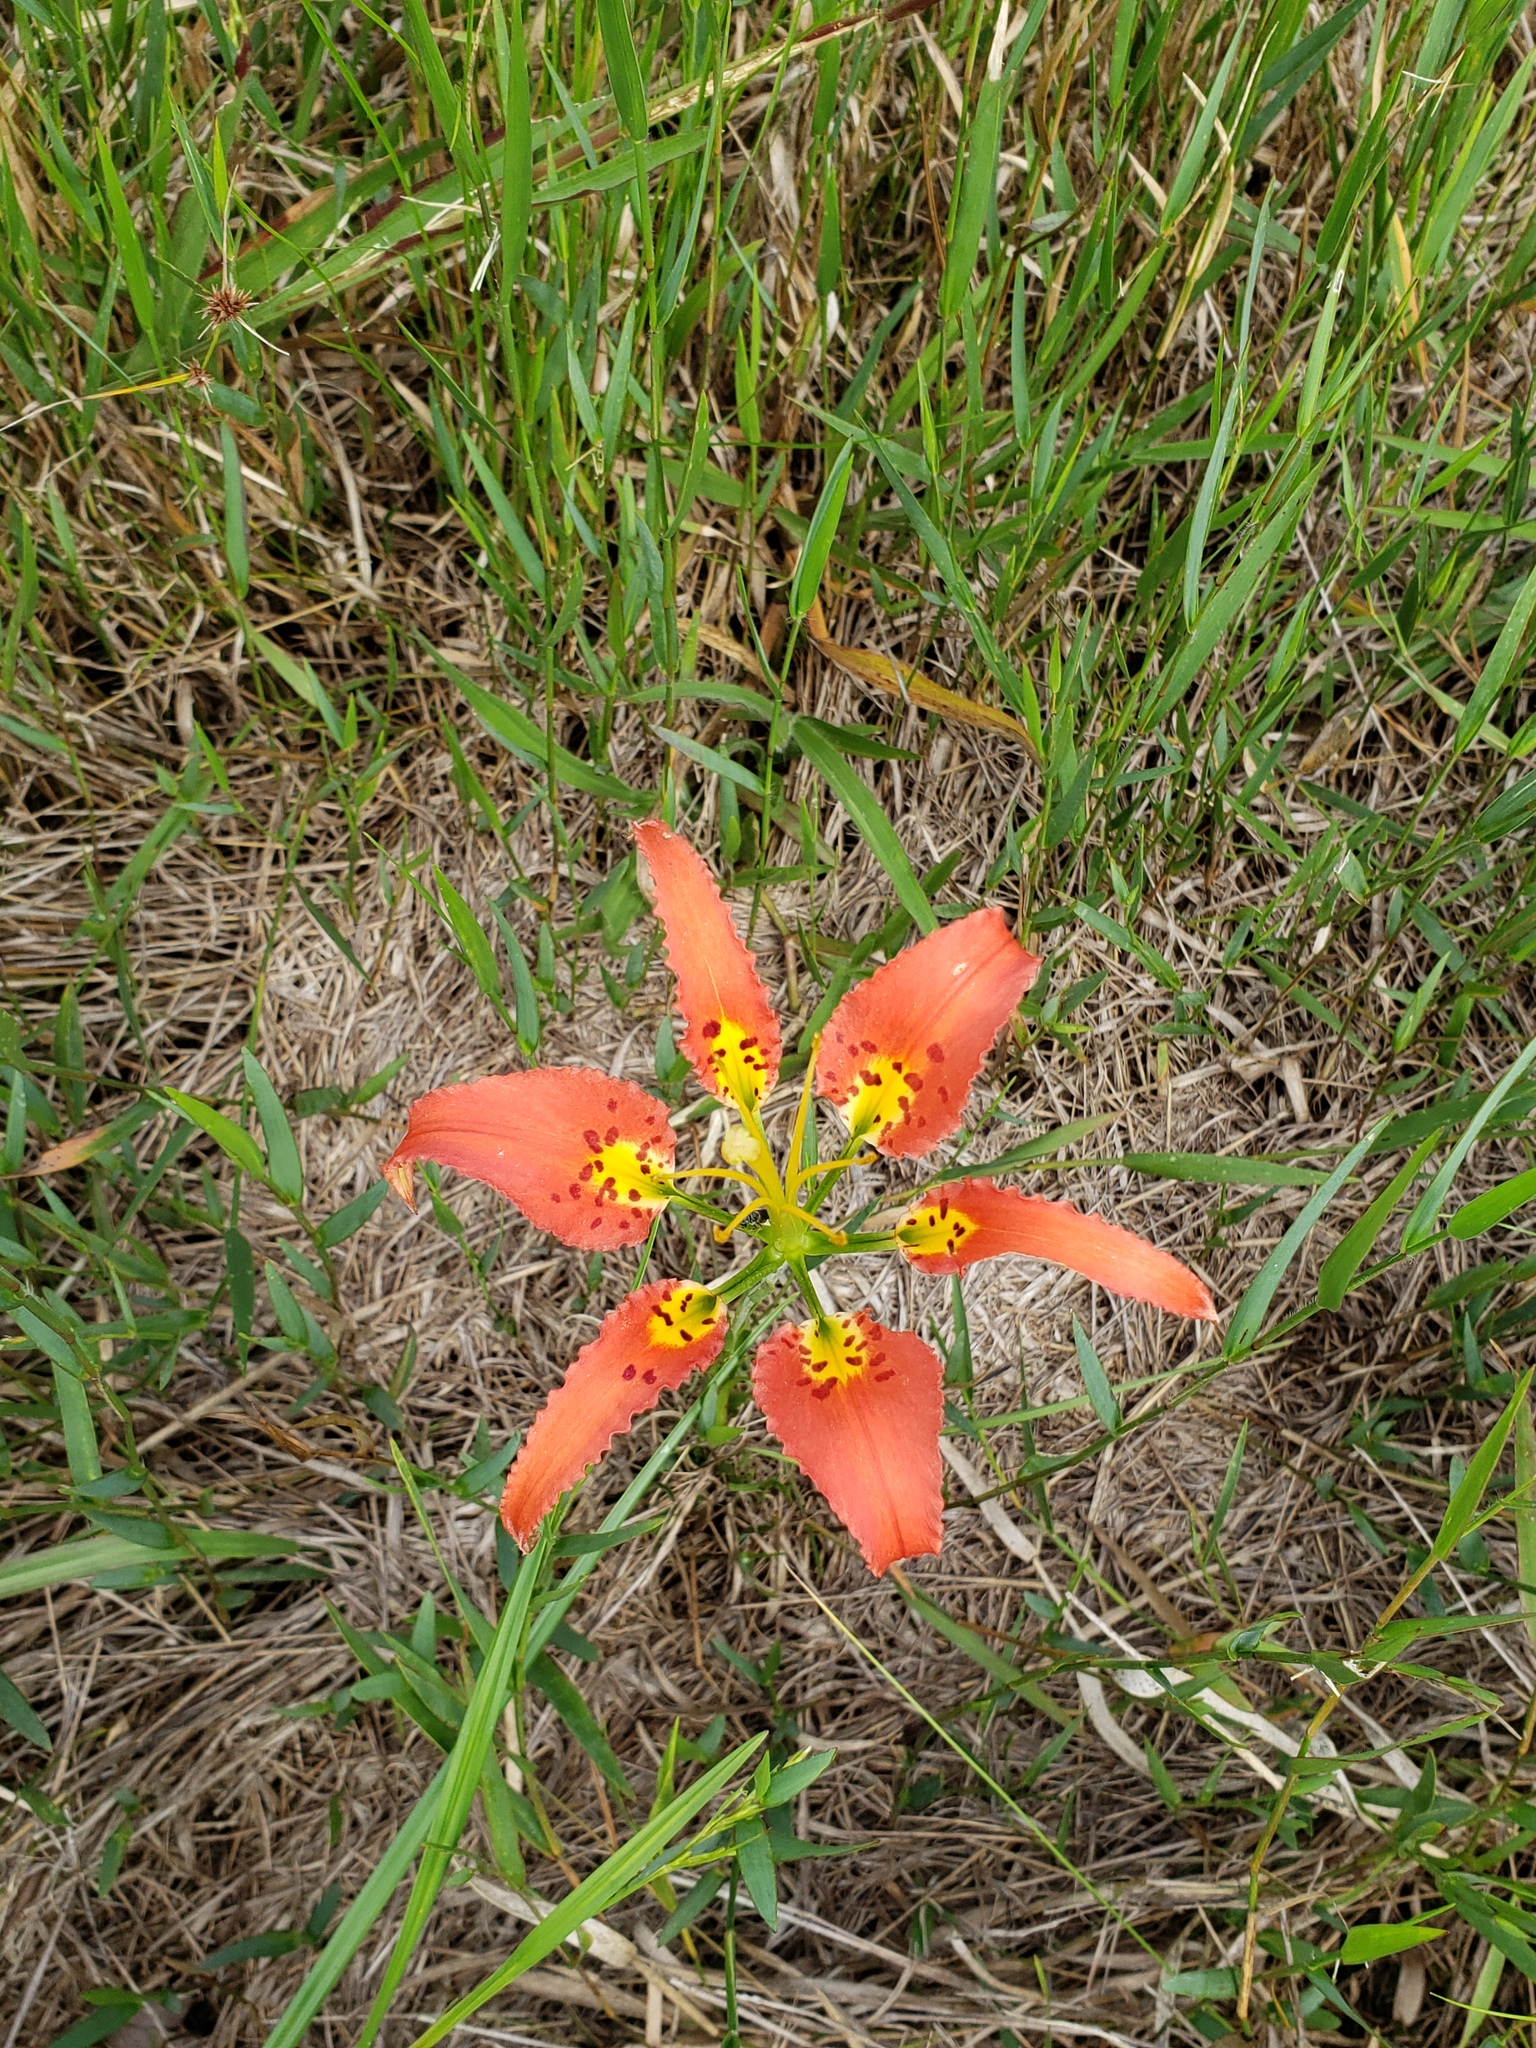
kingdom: Plantae
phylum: Tracheophyta
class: Liliopsida
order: Liliales
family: Liliaceae
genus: Lilium
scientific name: Lilium catesbaei
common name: Catesby's lily
